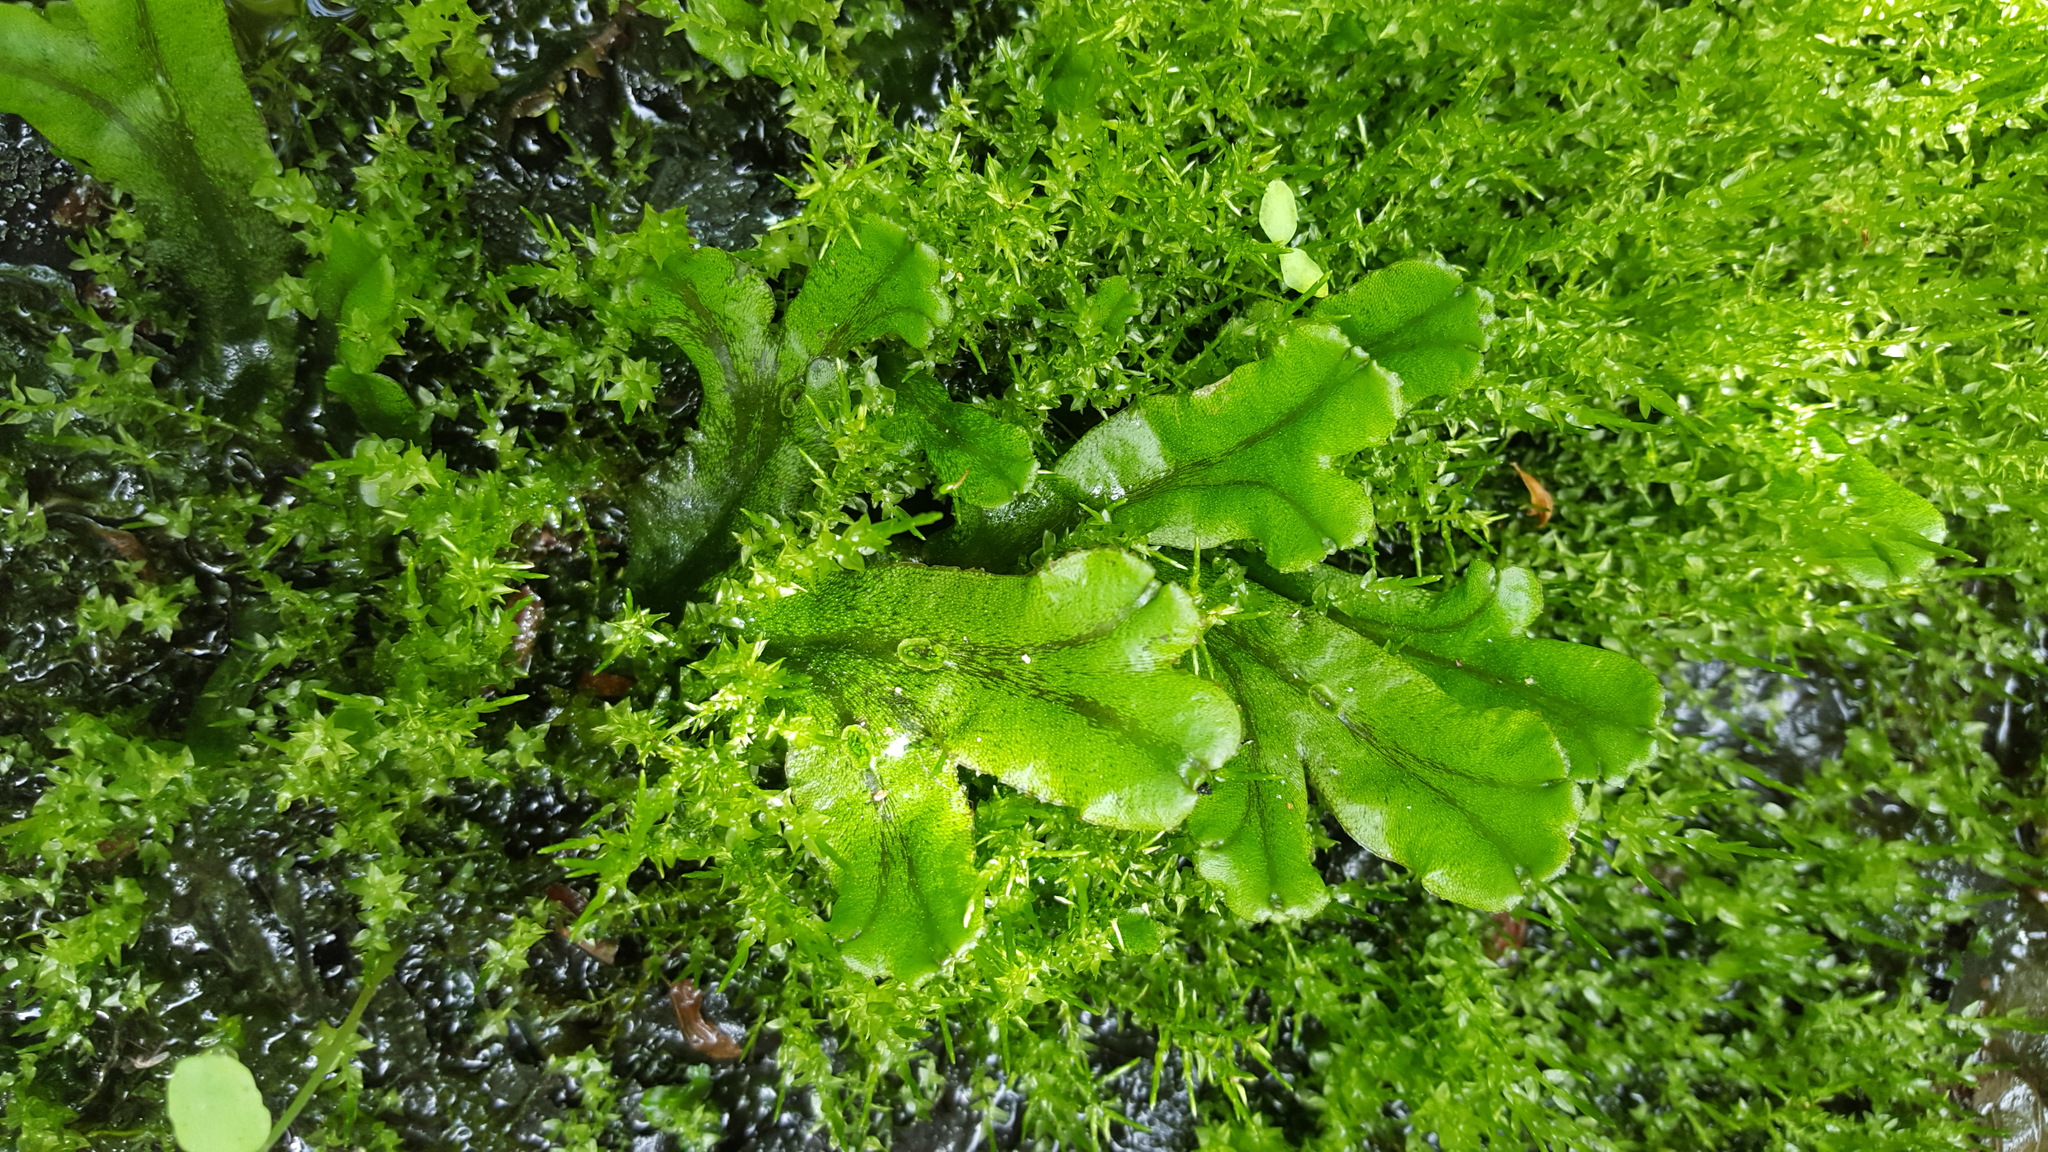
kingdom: Plantae
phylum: Marchantiophyta
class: Marchantiopsida
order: Marchantiales
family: Marchantiaceae
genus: Marchantia
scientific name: Marchantia polymorpha
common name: Common liverwort
